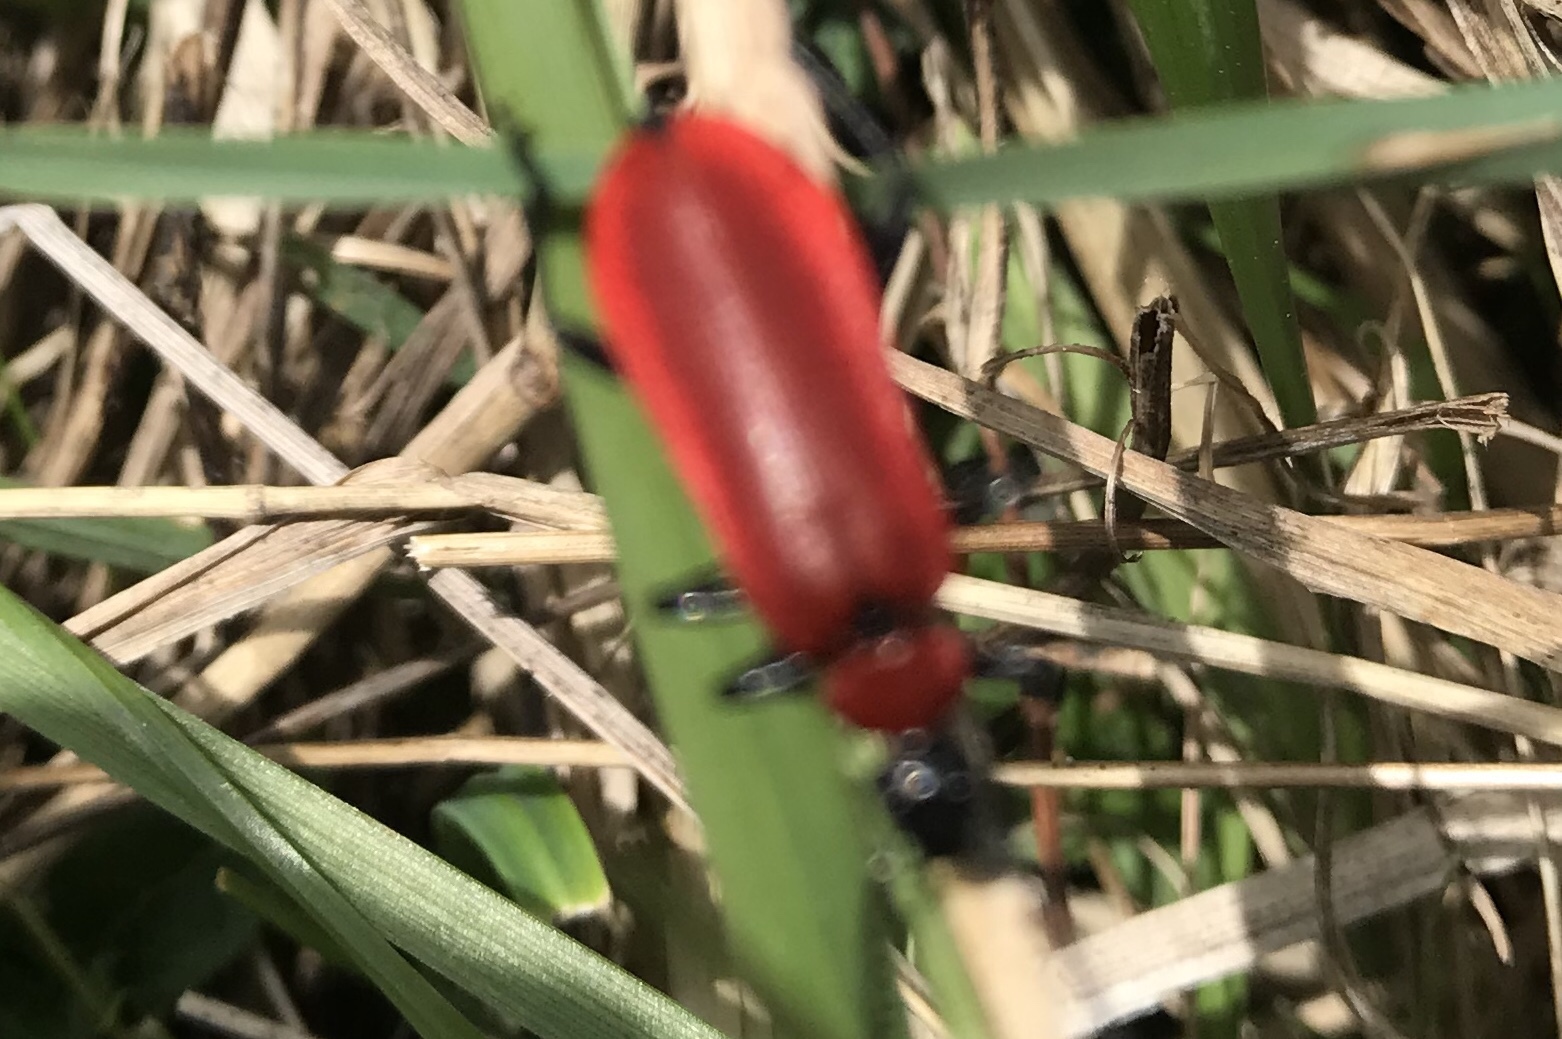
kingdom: Animalia
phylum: Arthropoda
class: Insecta
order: Coleoptera
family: Pyrochroidae
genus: Pyrochroa
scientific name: Pyrochroa coccinea
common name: Black-headed cardinal beetle
